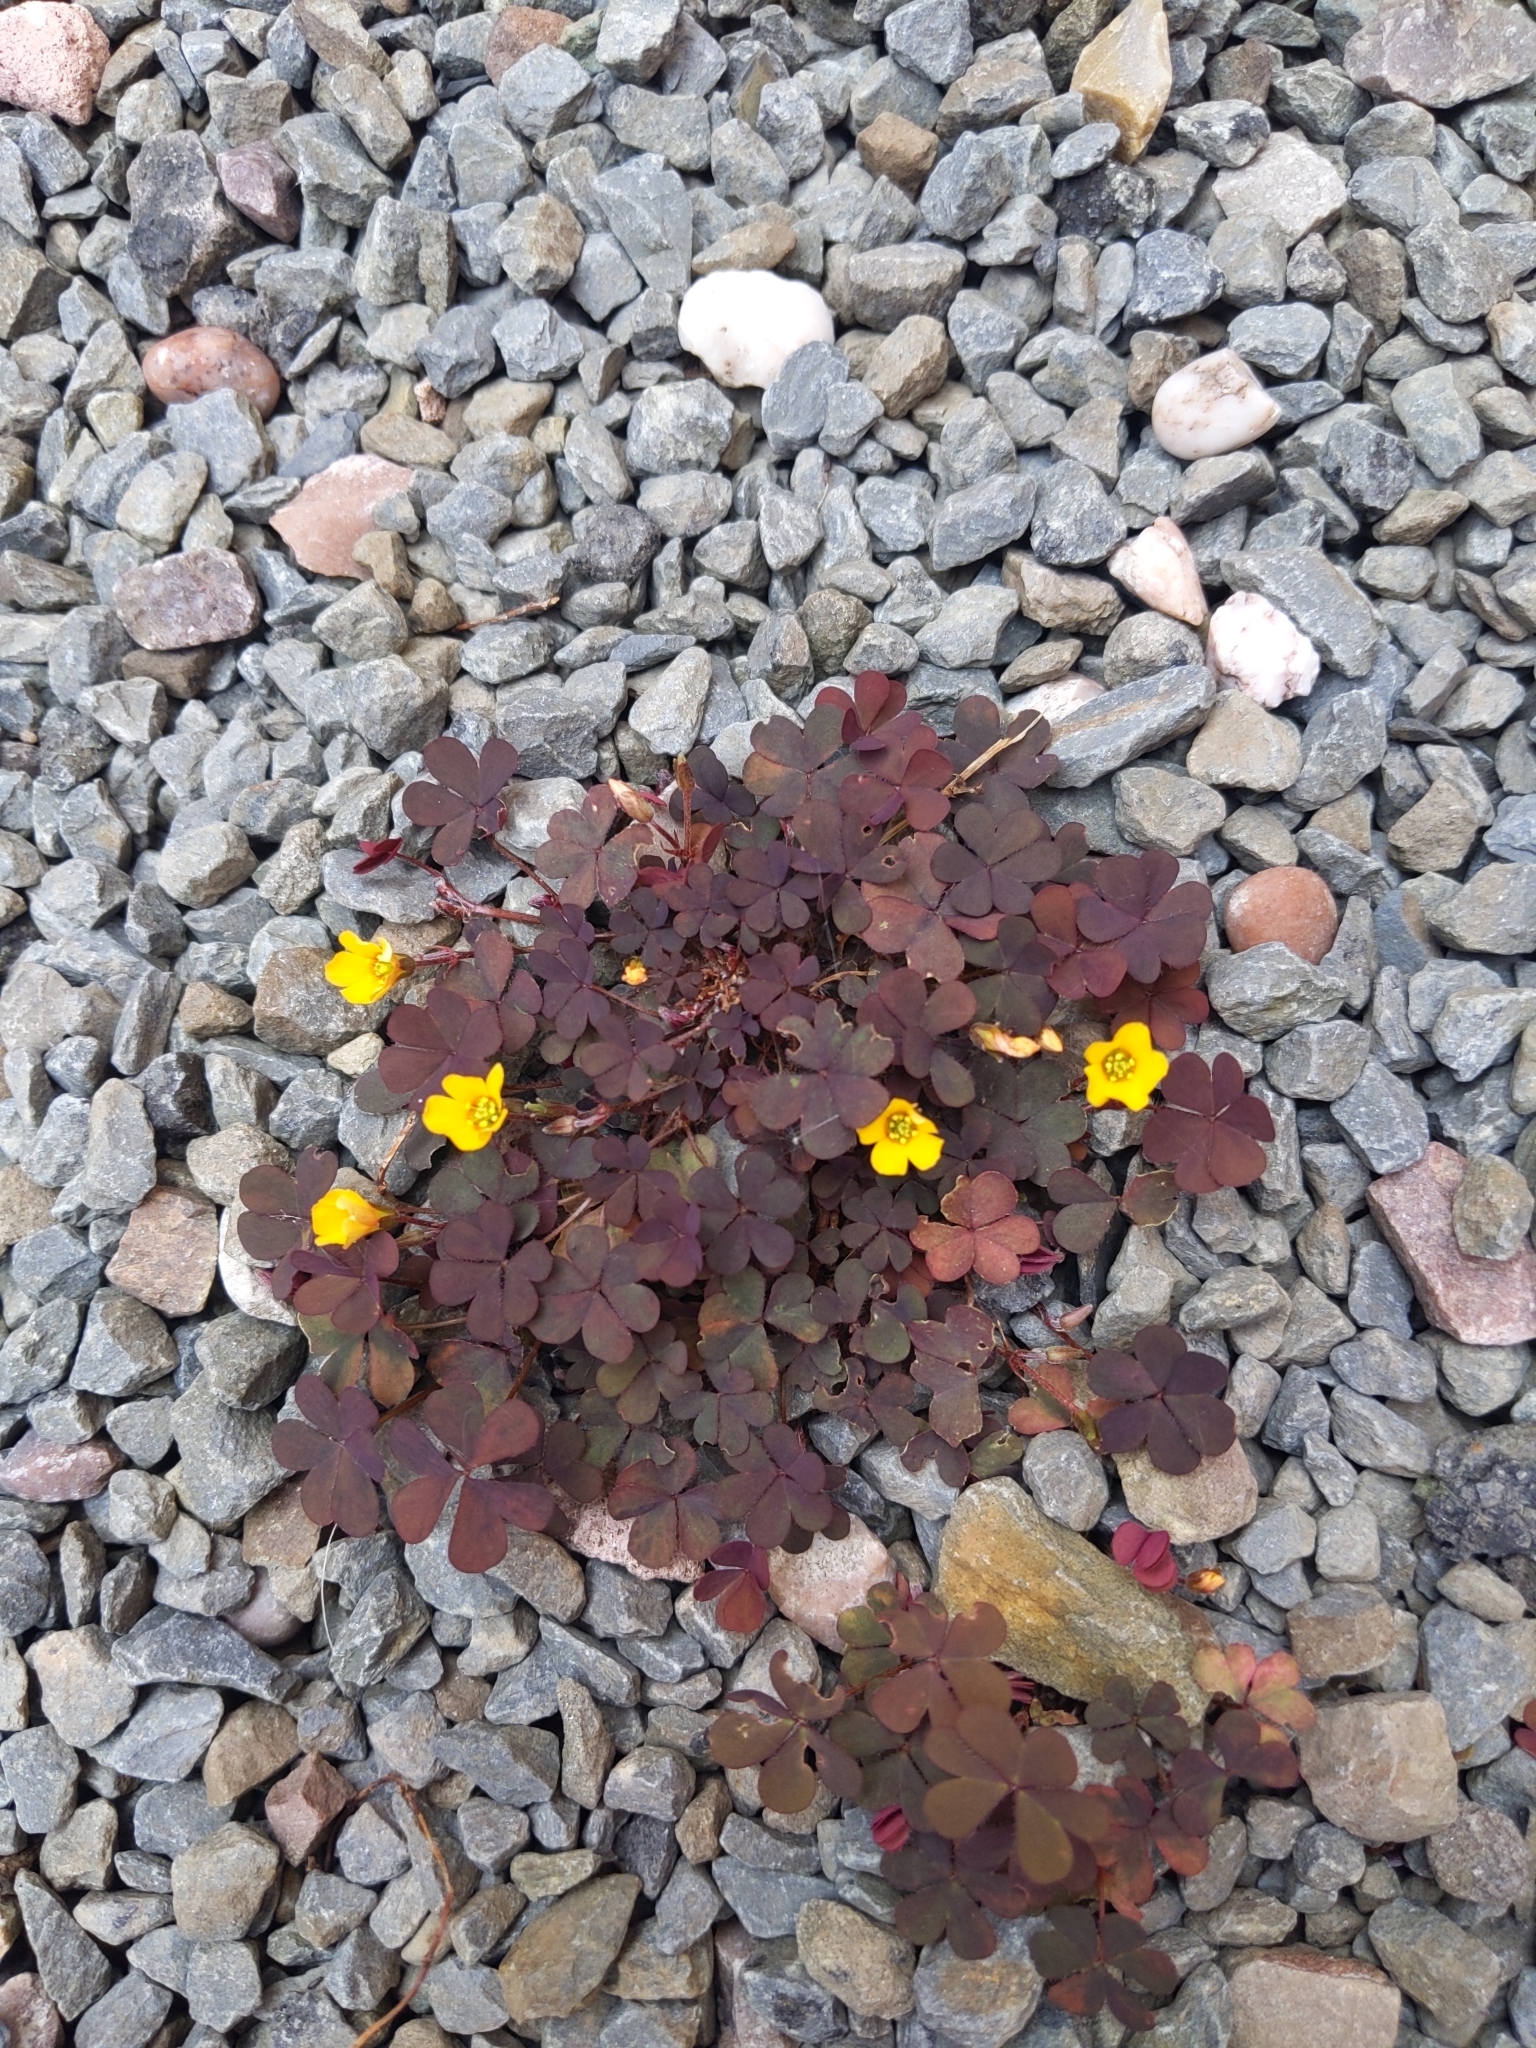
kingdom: Plantae
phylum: Tracheophyta
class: Magnoliopsida
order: Oxalidales
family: Oxalidaceae
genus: Oxalis
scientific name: Oxalis corniculata
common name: Procumbent yellow-sorrel
